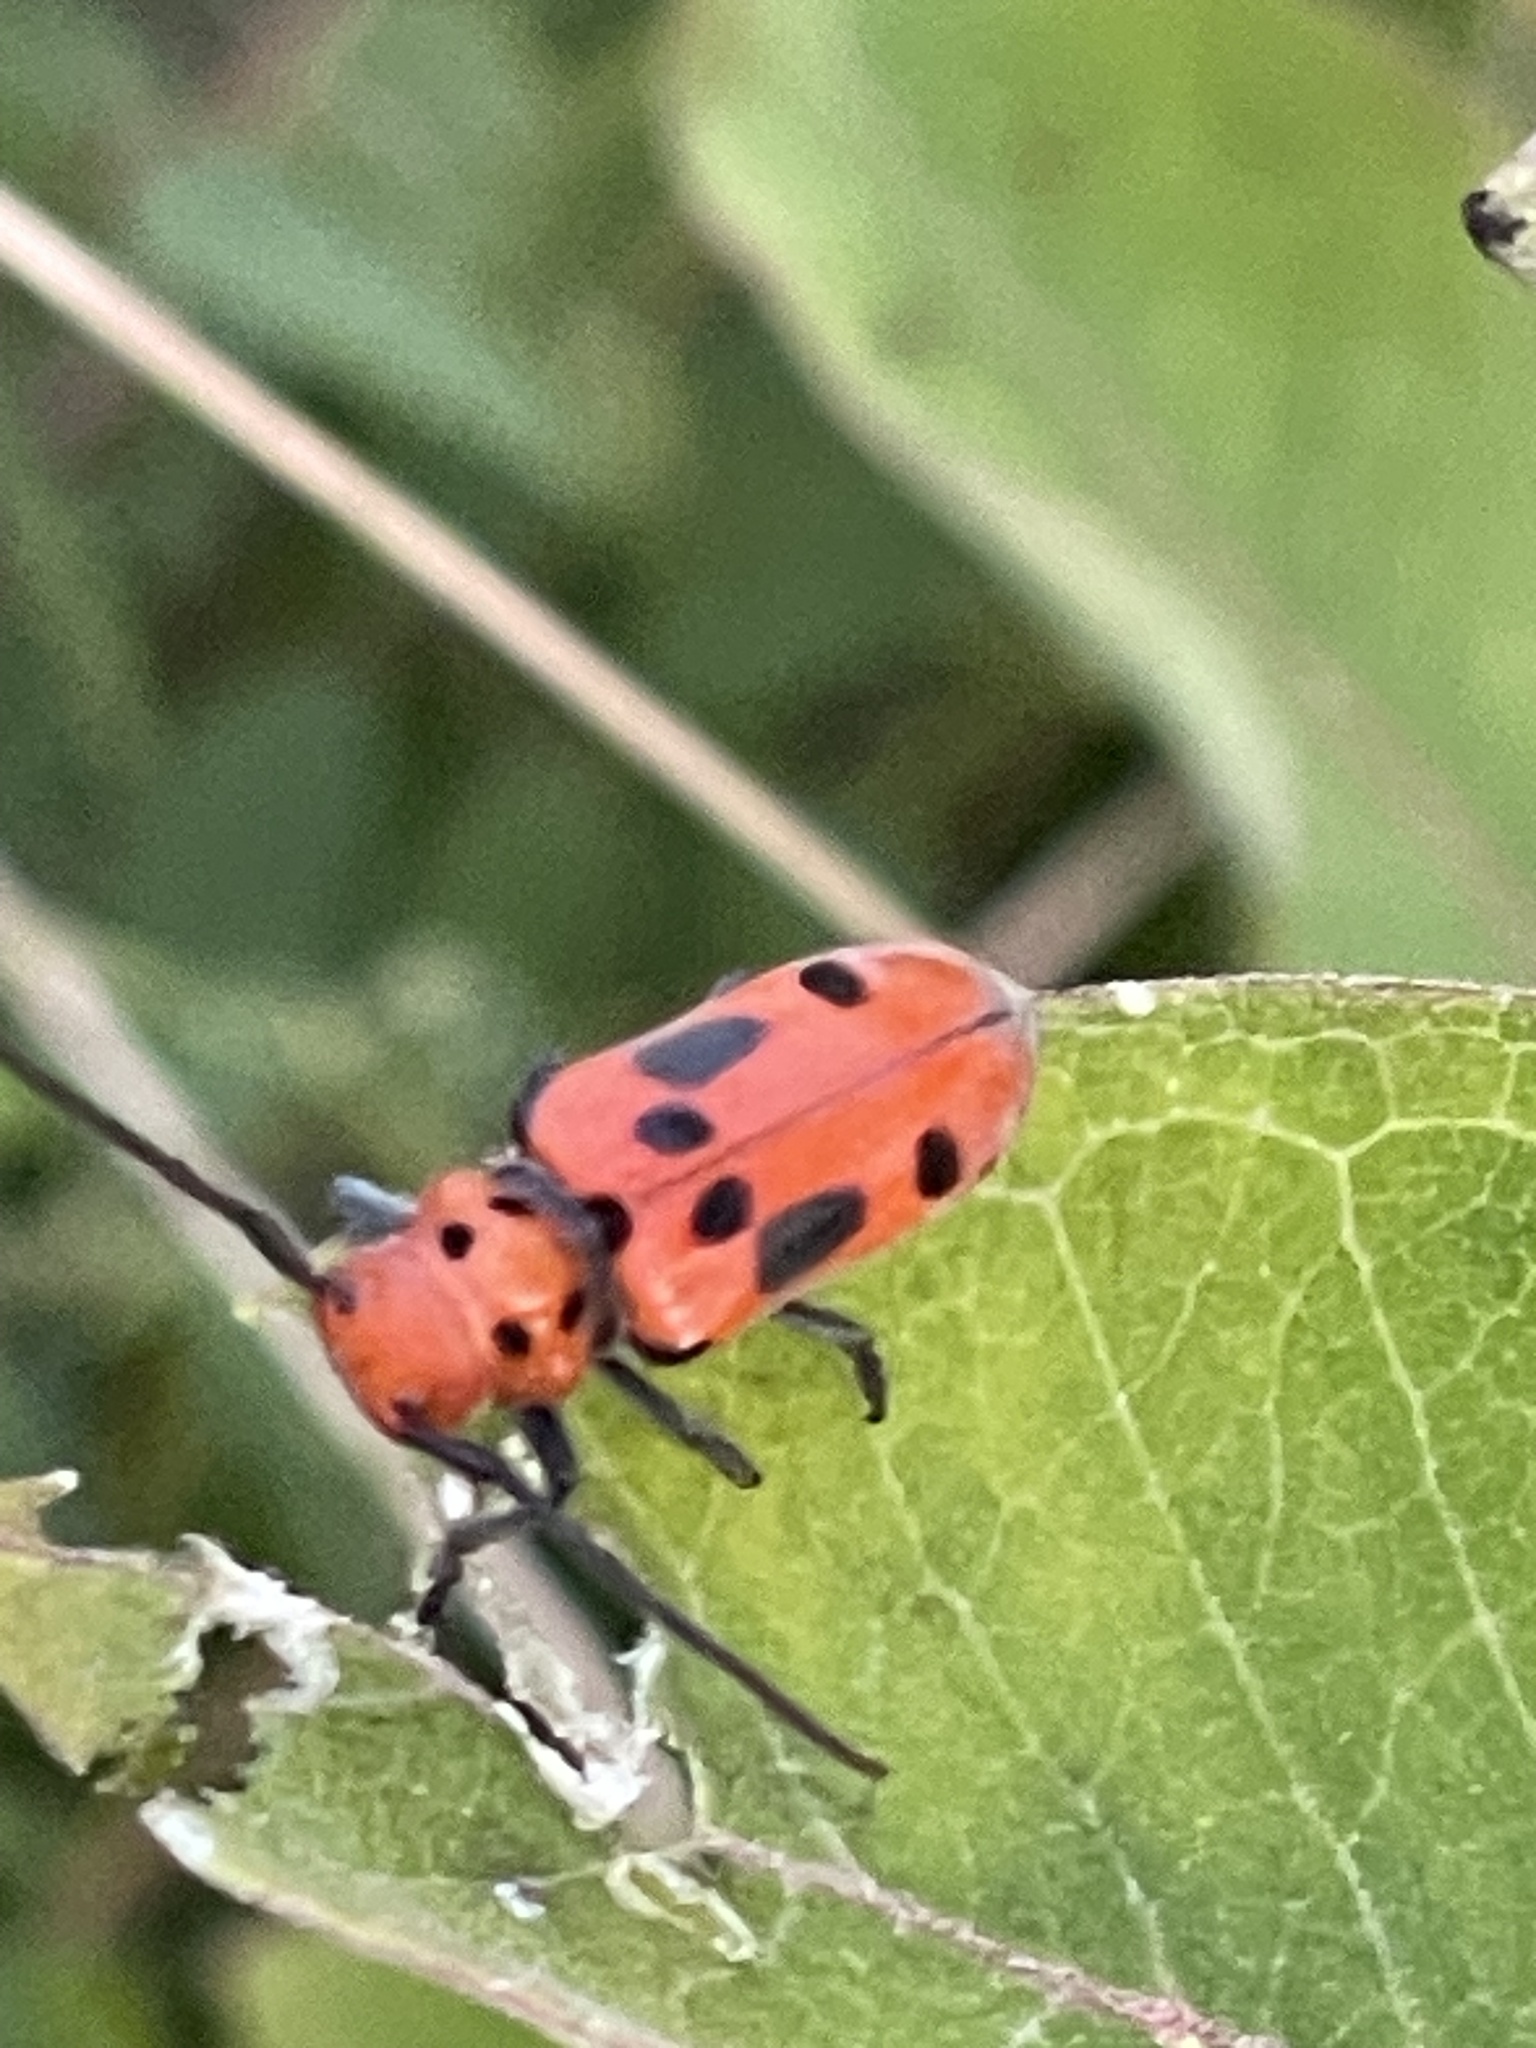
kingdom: Animalia
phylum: Arthropoda
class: Insecta
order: Coleoptera
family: Cerambycidae
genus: Tetraopes
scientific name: Tetraopes tetrophthalmus
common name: Red milkweed beetle
